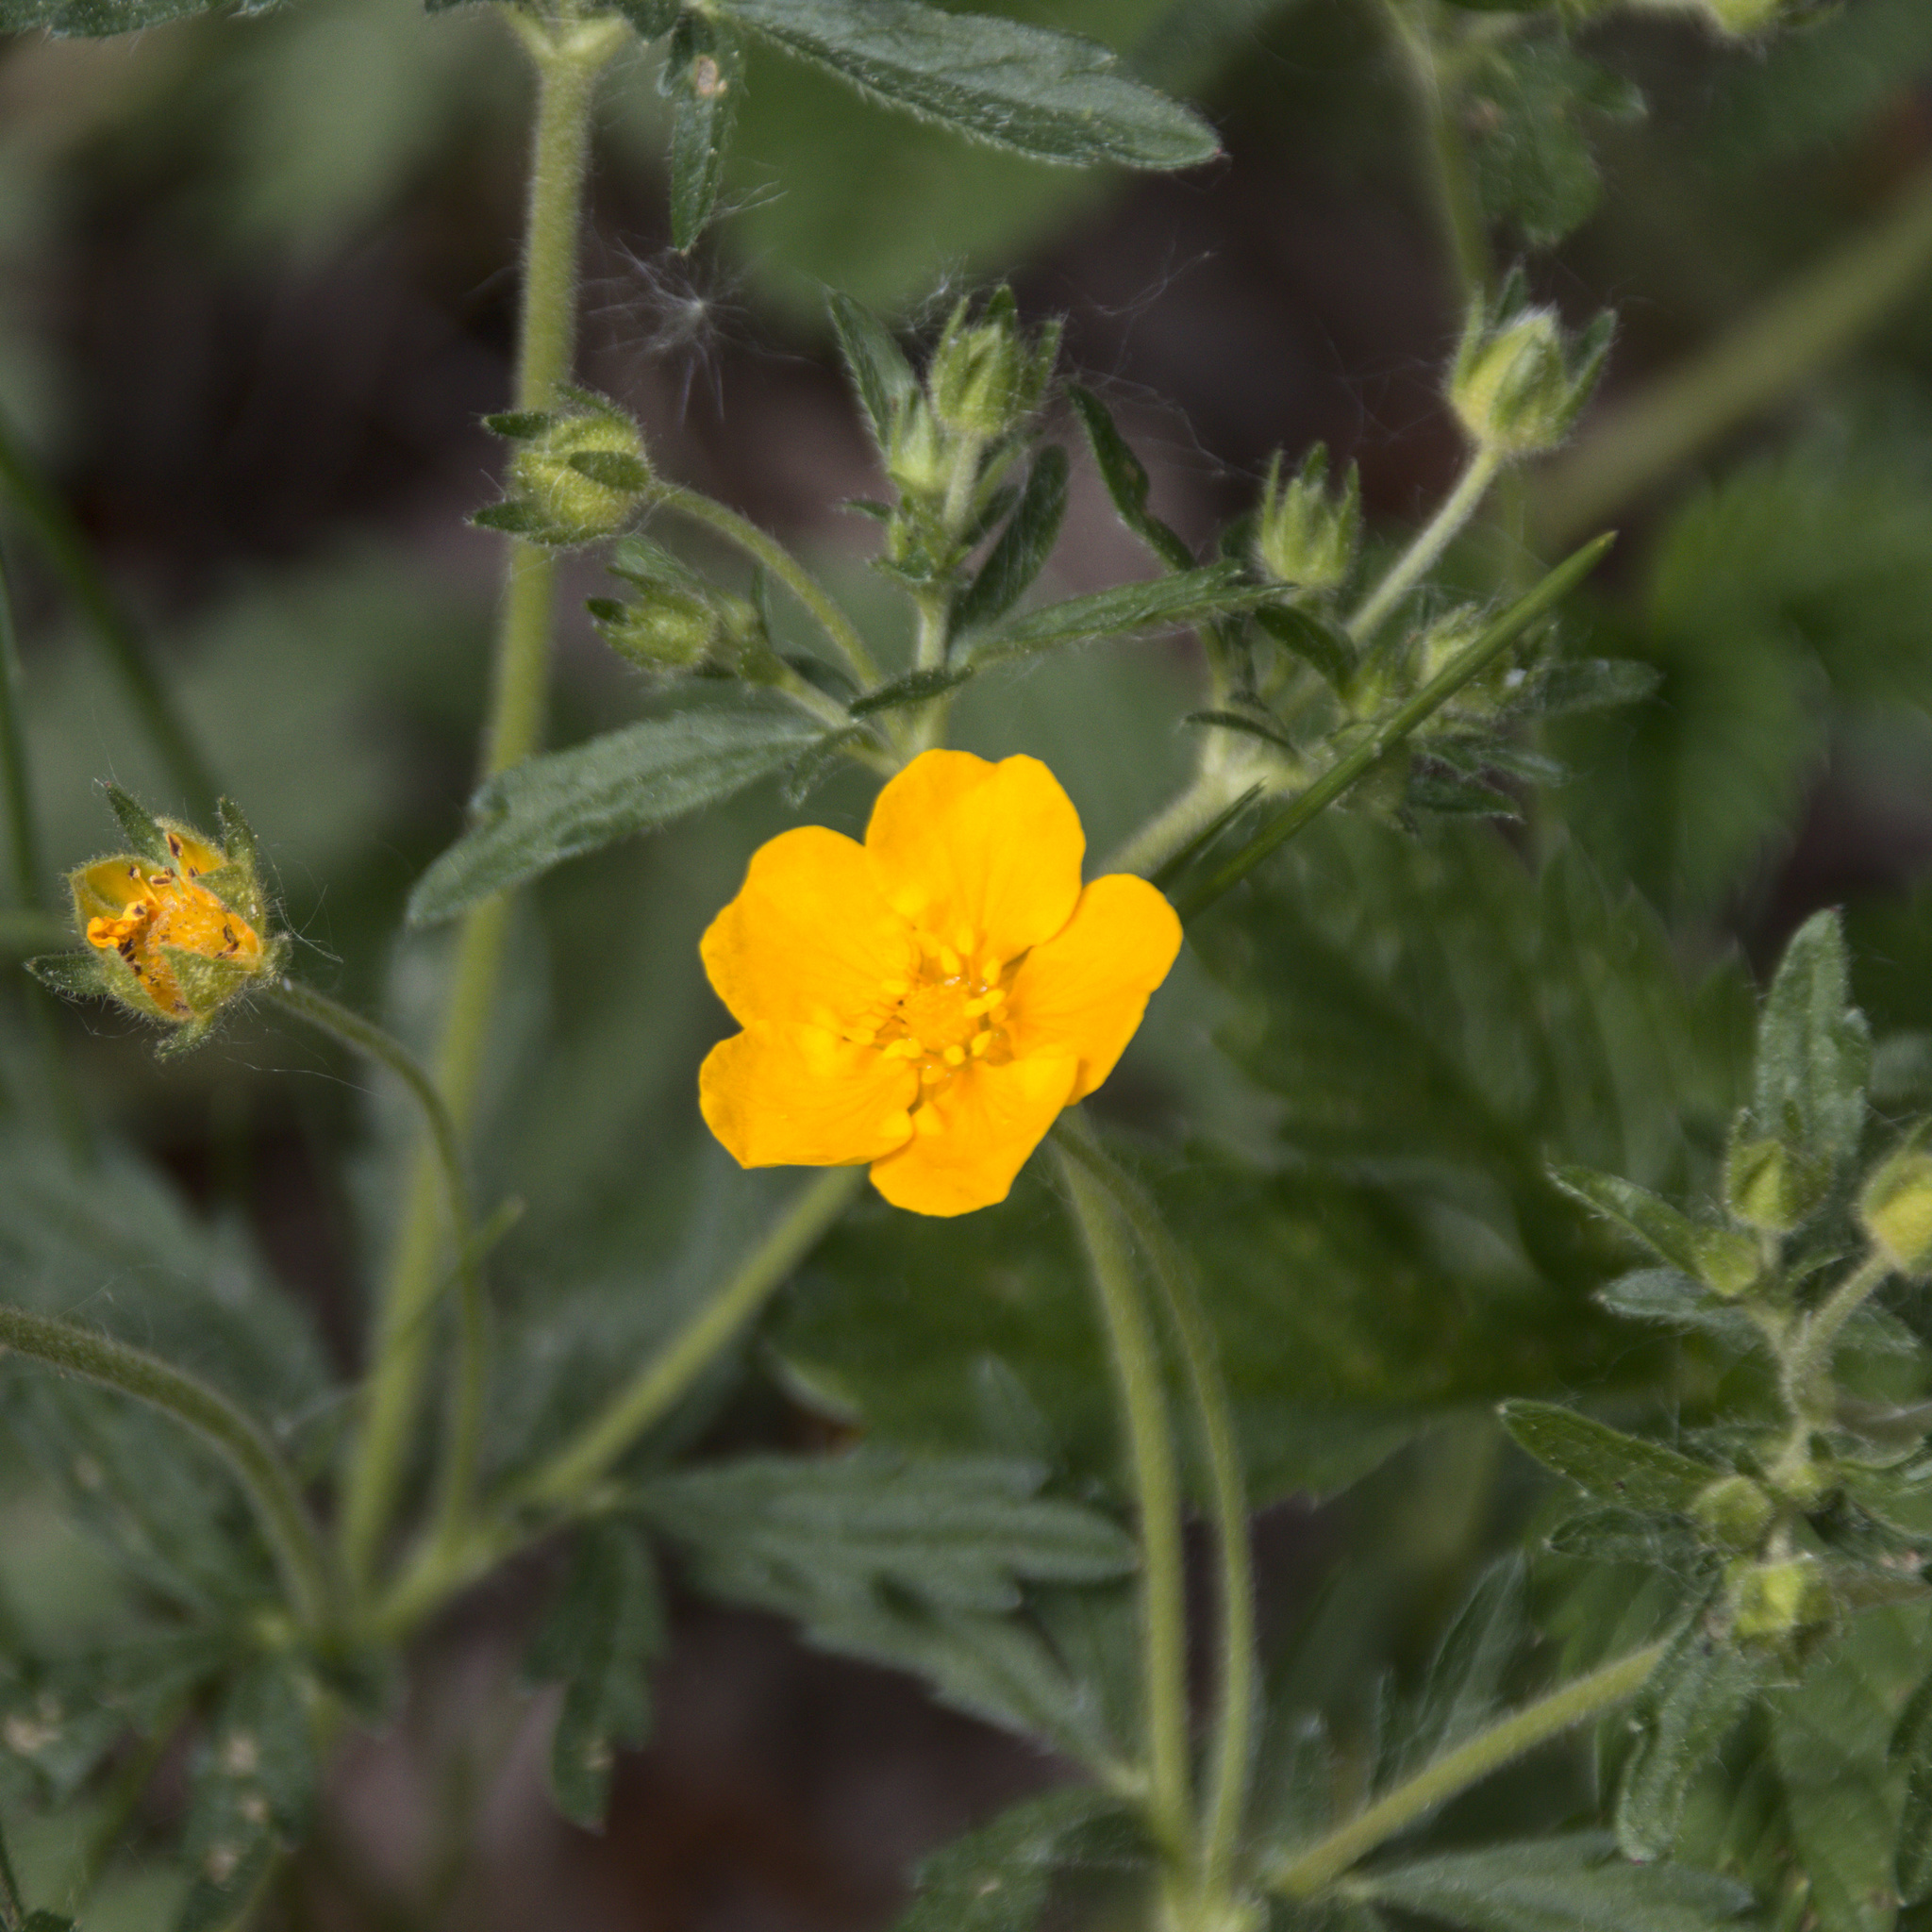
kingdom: Plantae
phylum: Tracheophyta
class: Magnoliopsida
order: Rosales
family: Rosaceae
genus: Potentilla
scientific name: Potentilla thuringiaca
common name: European cinquefoil
